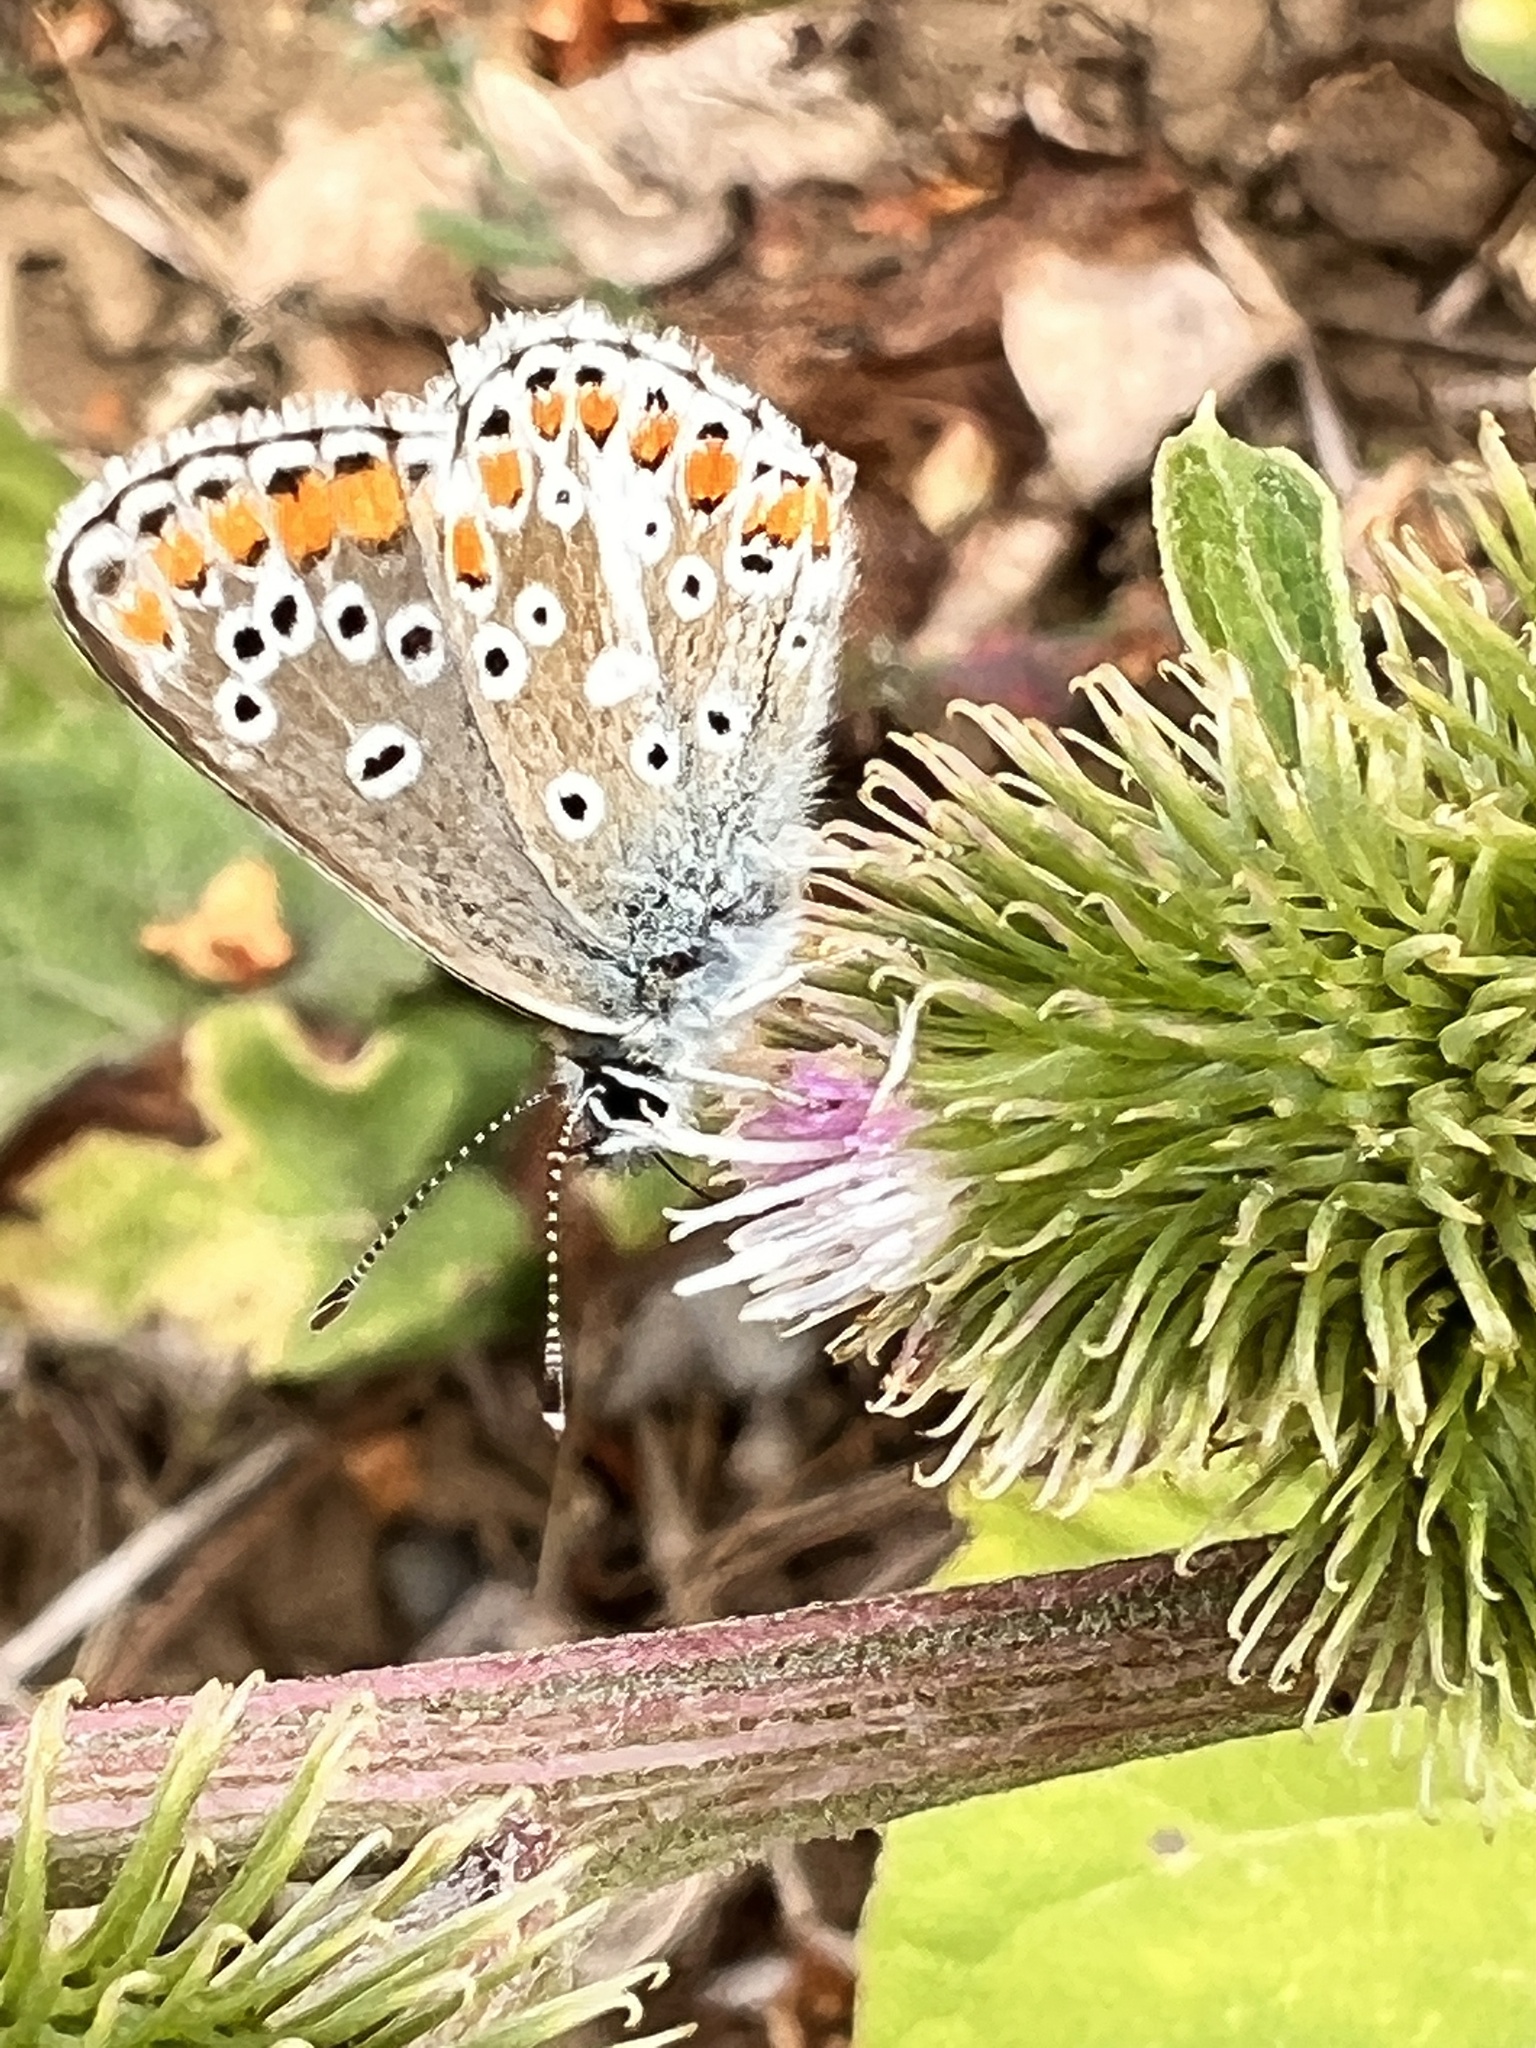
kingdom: Animalia
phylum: Arthropoda
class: Insecta
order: Lepidoptera
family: Lycaenidae
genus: Aricia
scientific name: Aricia agestis
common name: Brown argus
